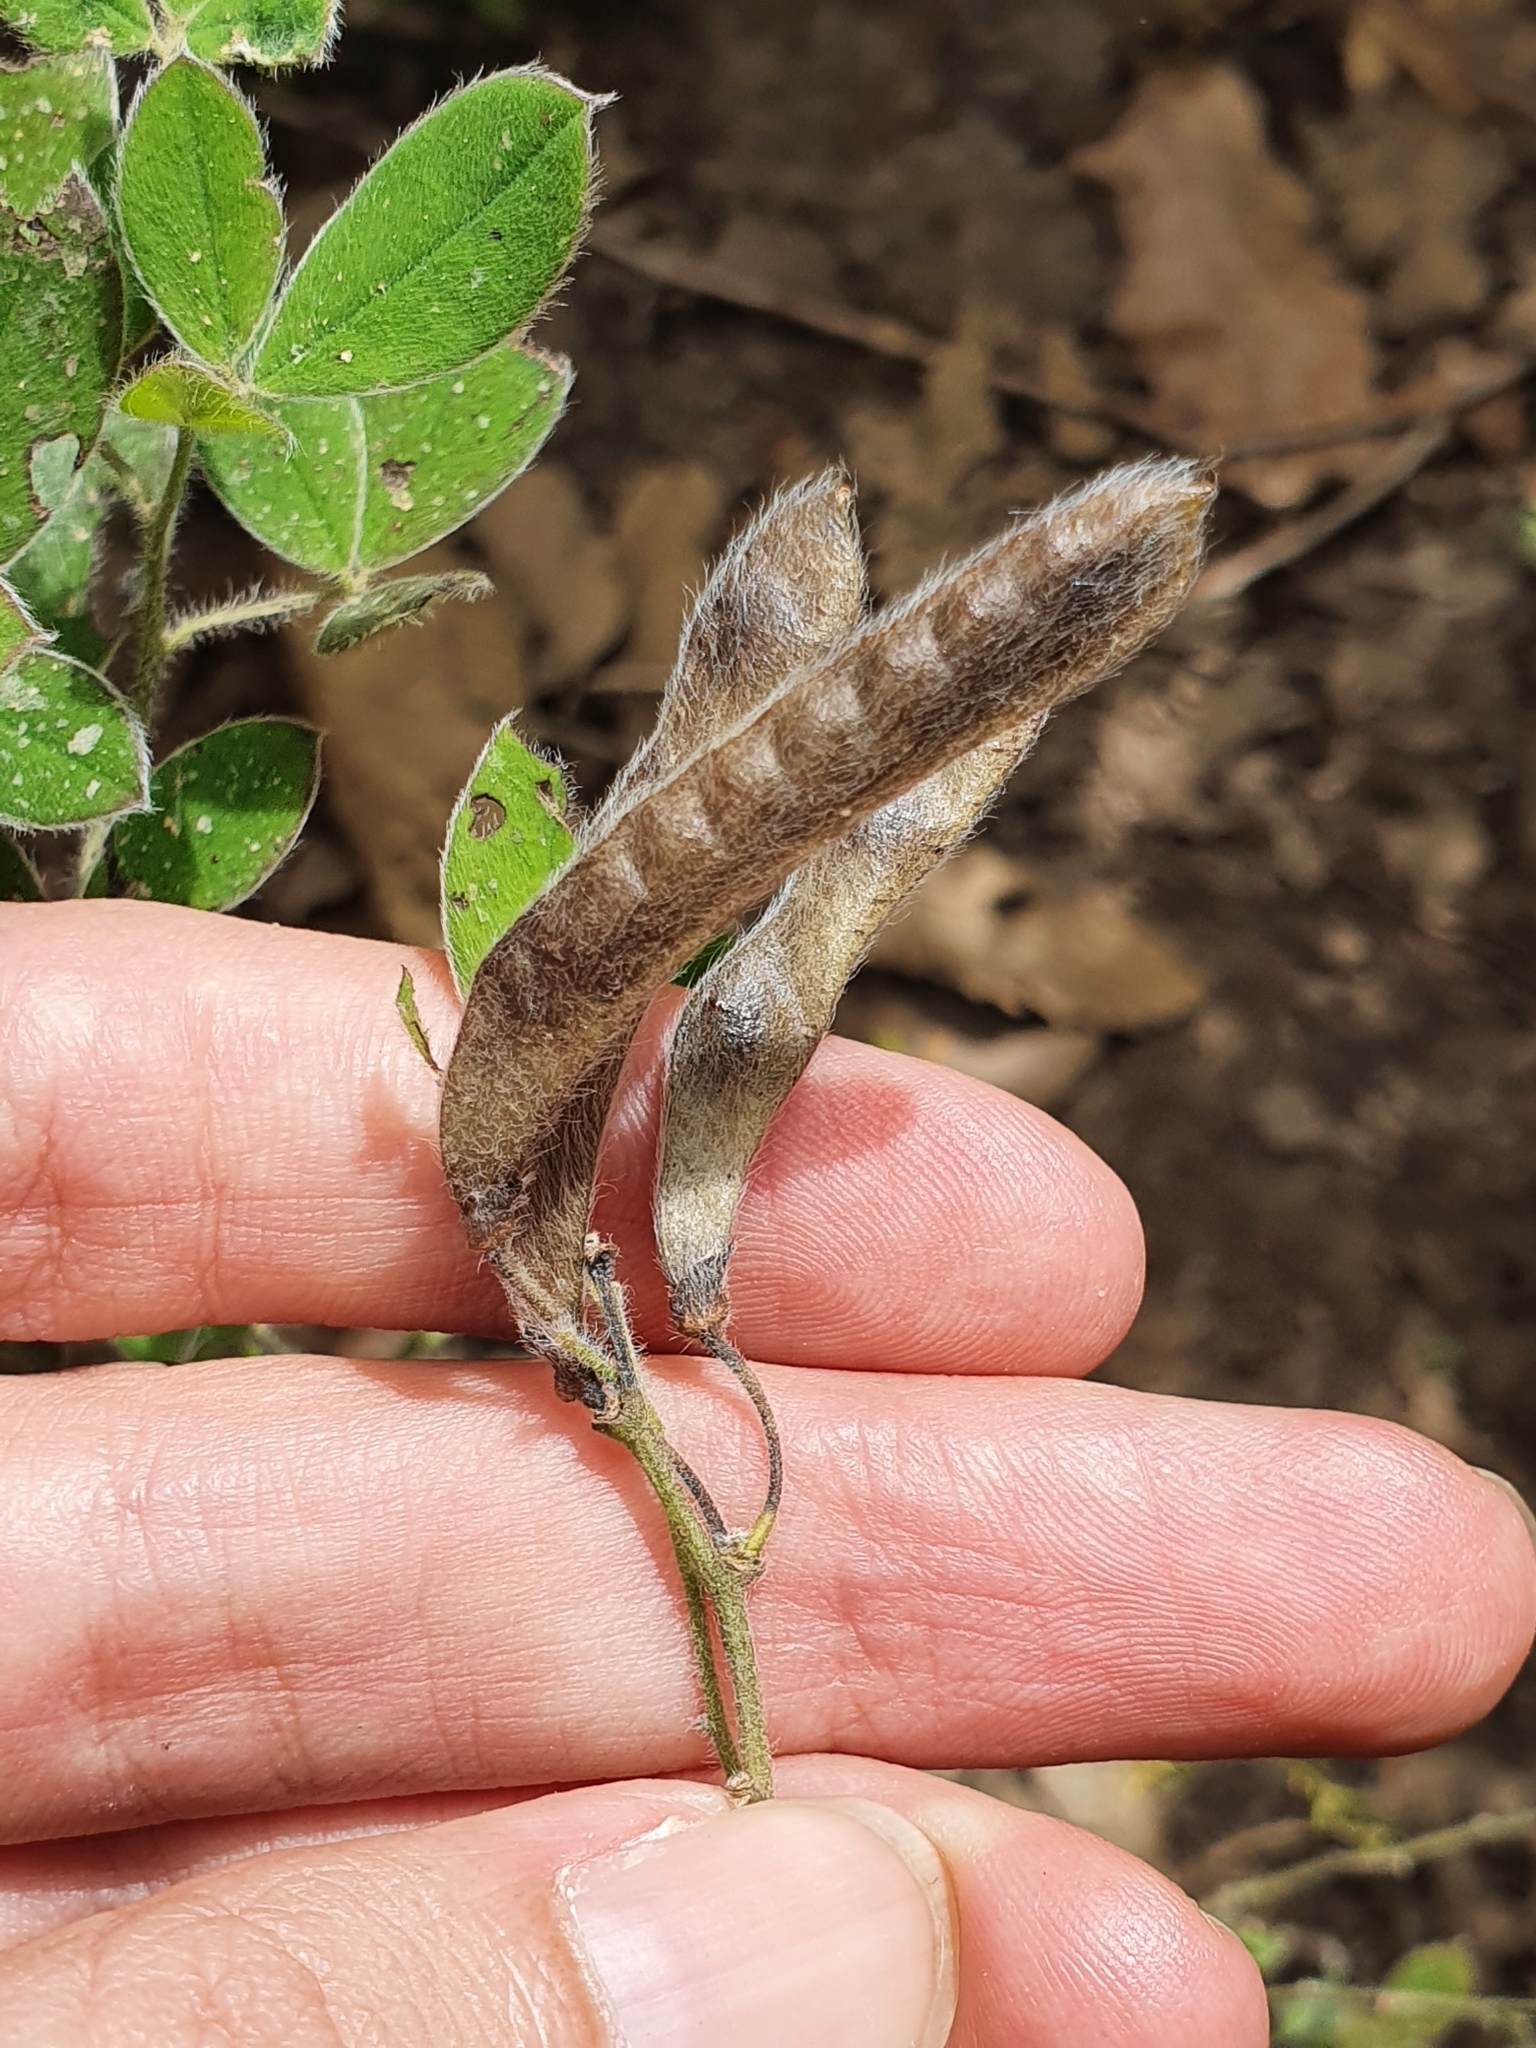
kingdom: Plantae
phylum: Tracheophyta
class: Magnoliopsida
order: Fabales
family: Fabaceae
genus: Cytisus
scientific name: Cytisus villosus
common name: Hairybroom
